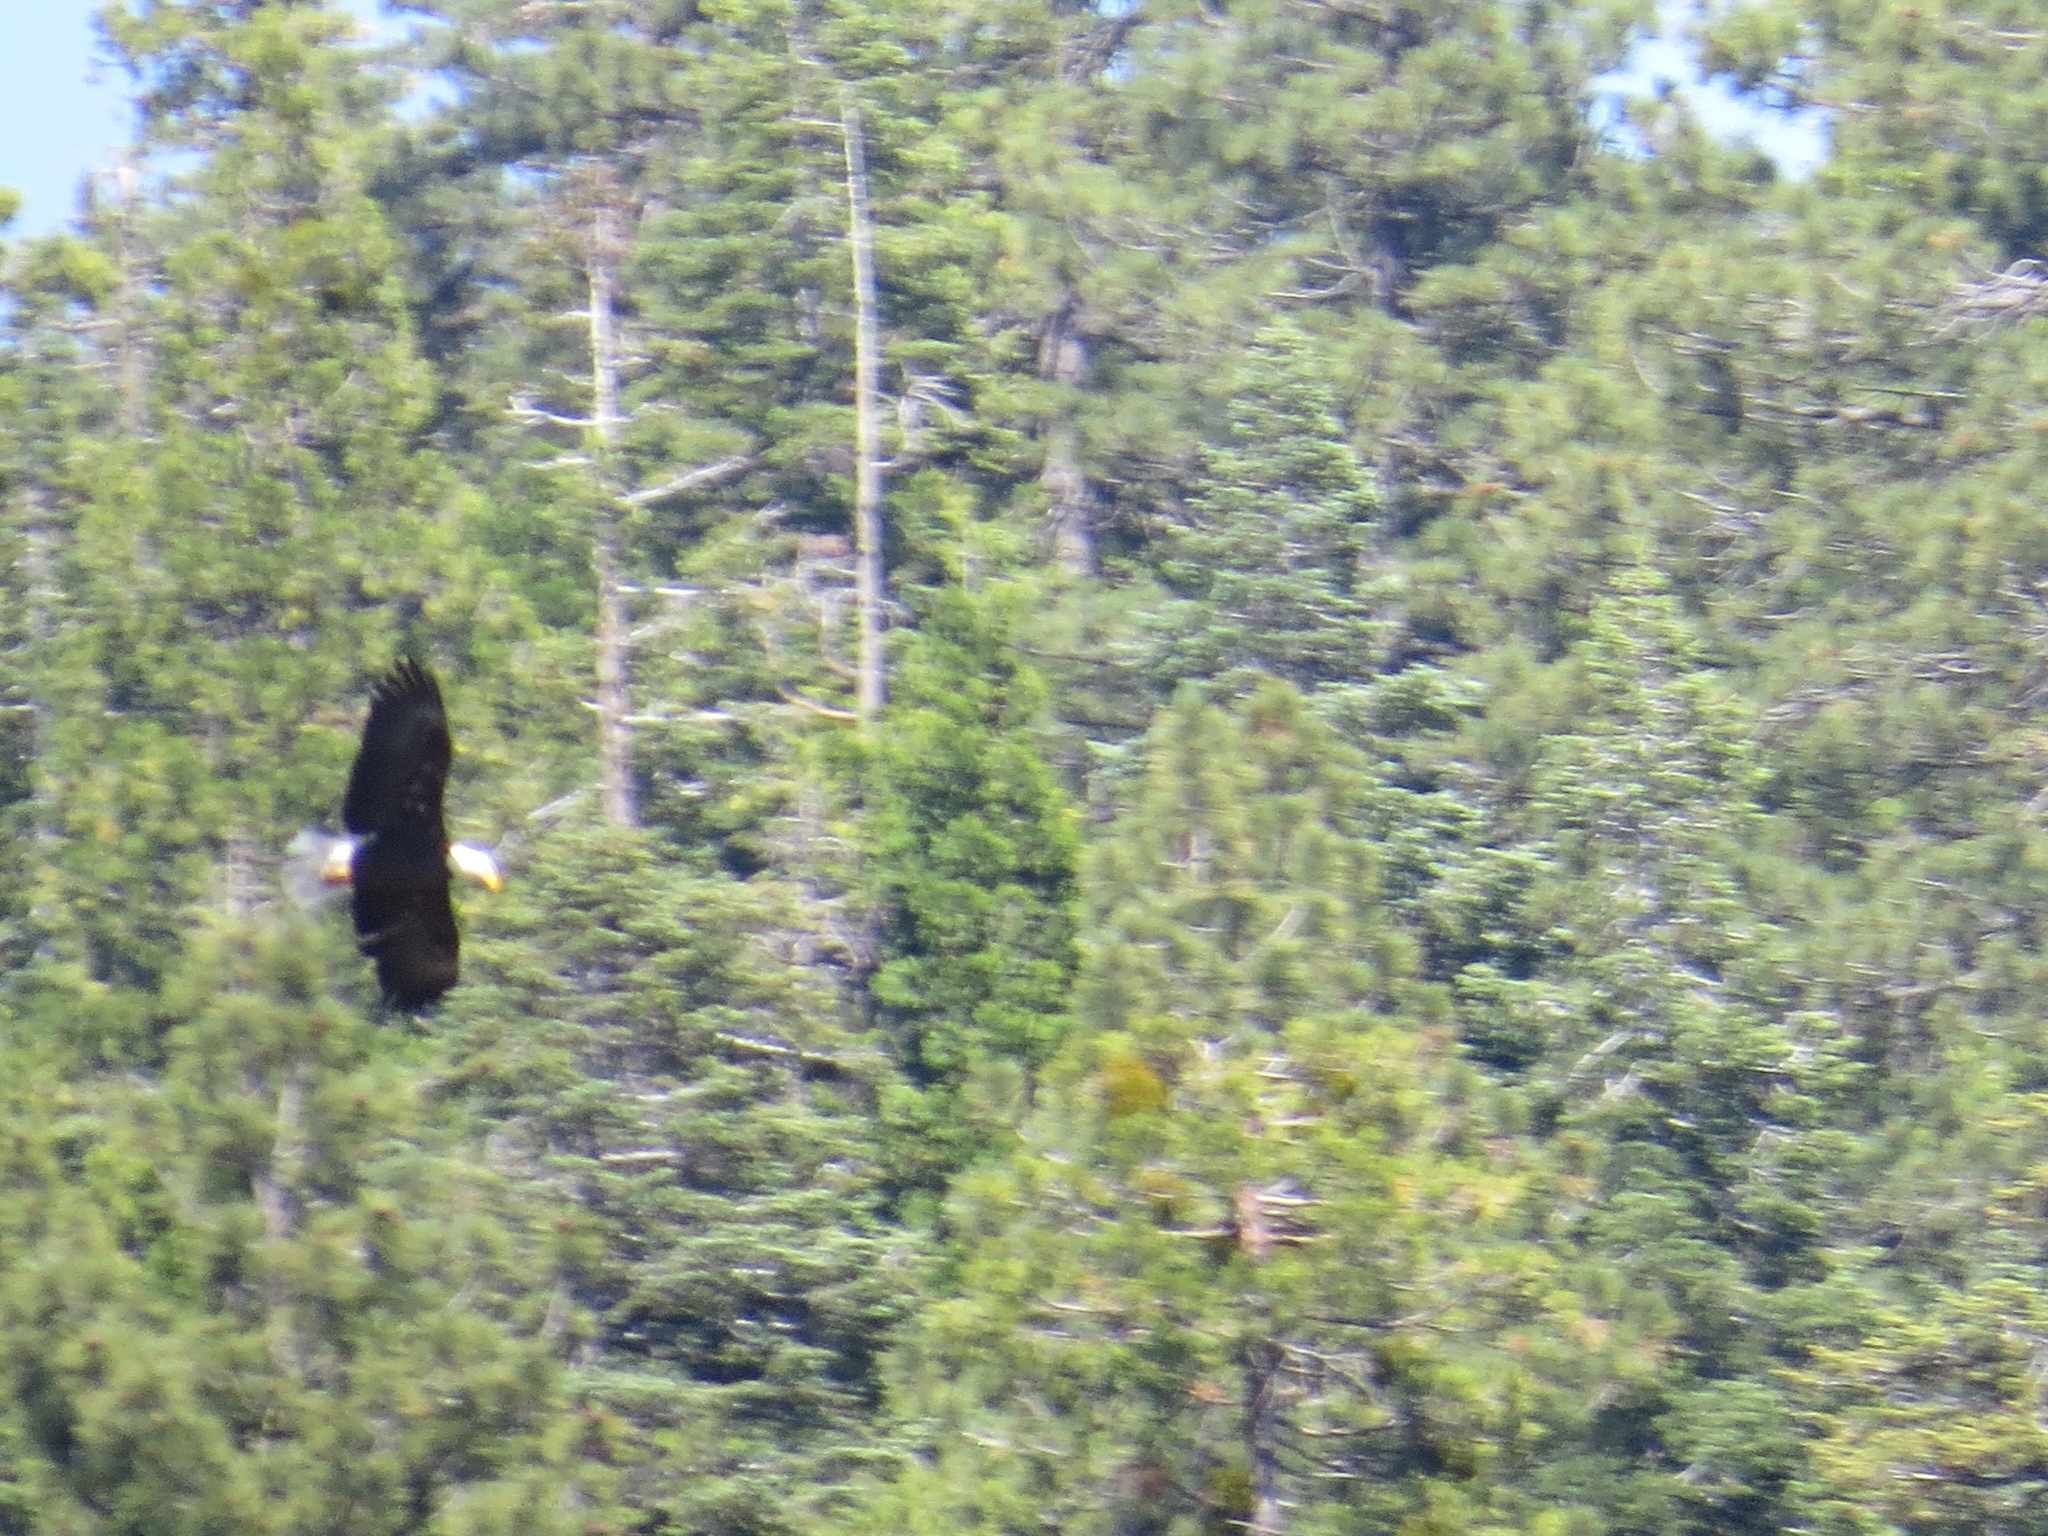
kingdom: Animalia
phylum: Chordata
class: Aves
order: Accipitriformes
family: Accipitridae
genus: Haliaeetus
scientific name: Haliaeetus leucocephalus
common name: Bald eagle
